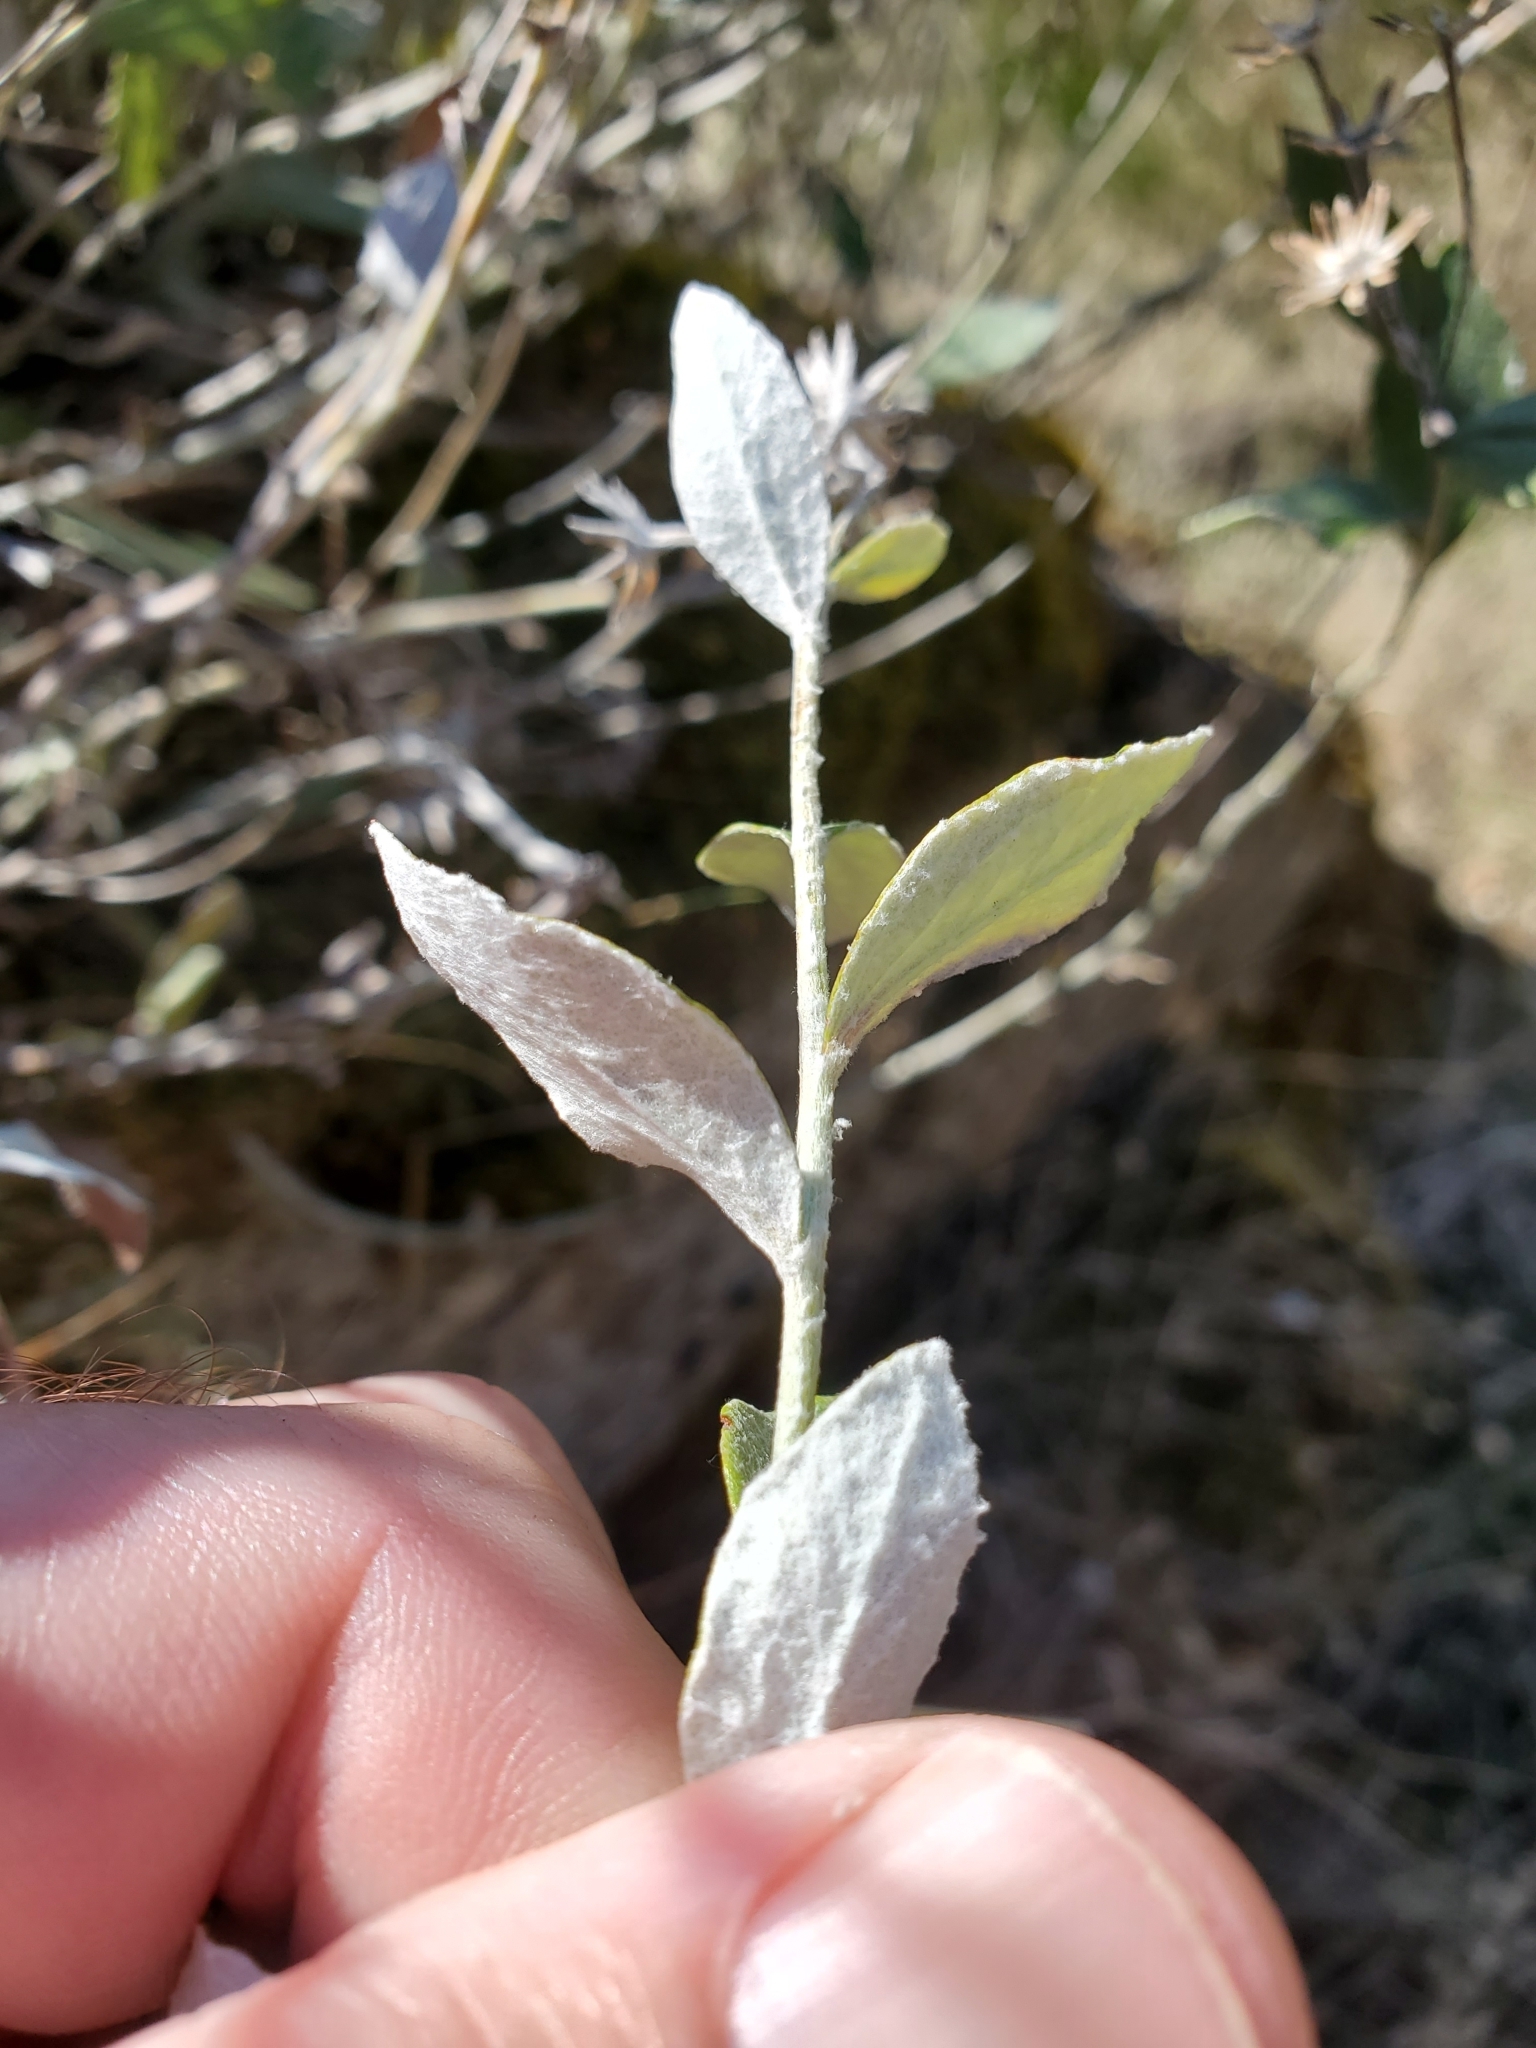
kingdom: Plantae
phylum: Tracheophyta
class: Magnoliopsida
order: Asterales
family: Asteraceae
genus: Luina
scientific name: Luina hypoleuca
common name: Little-leaved luina
